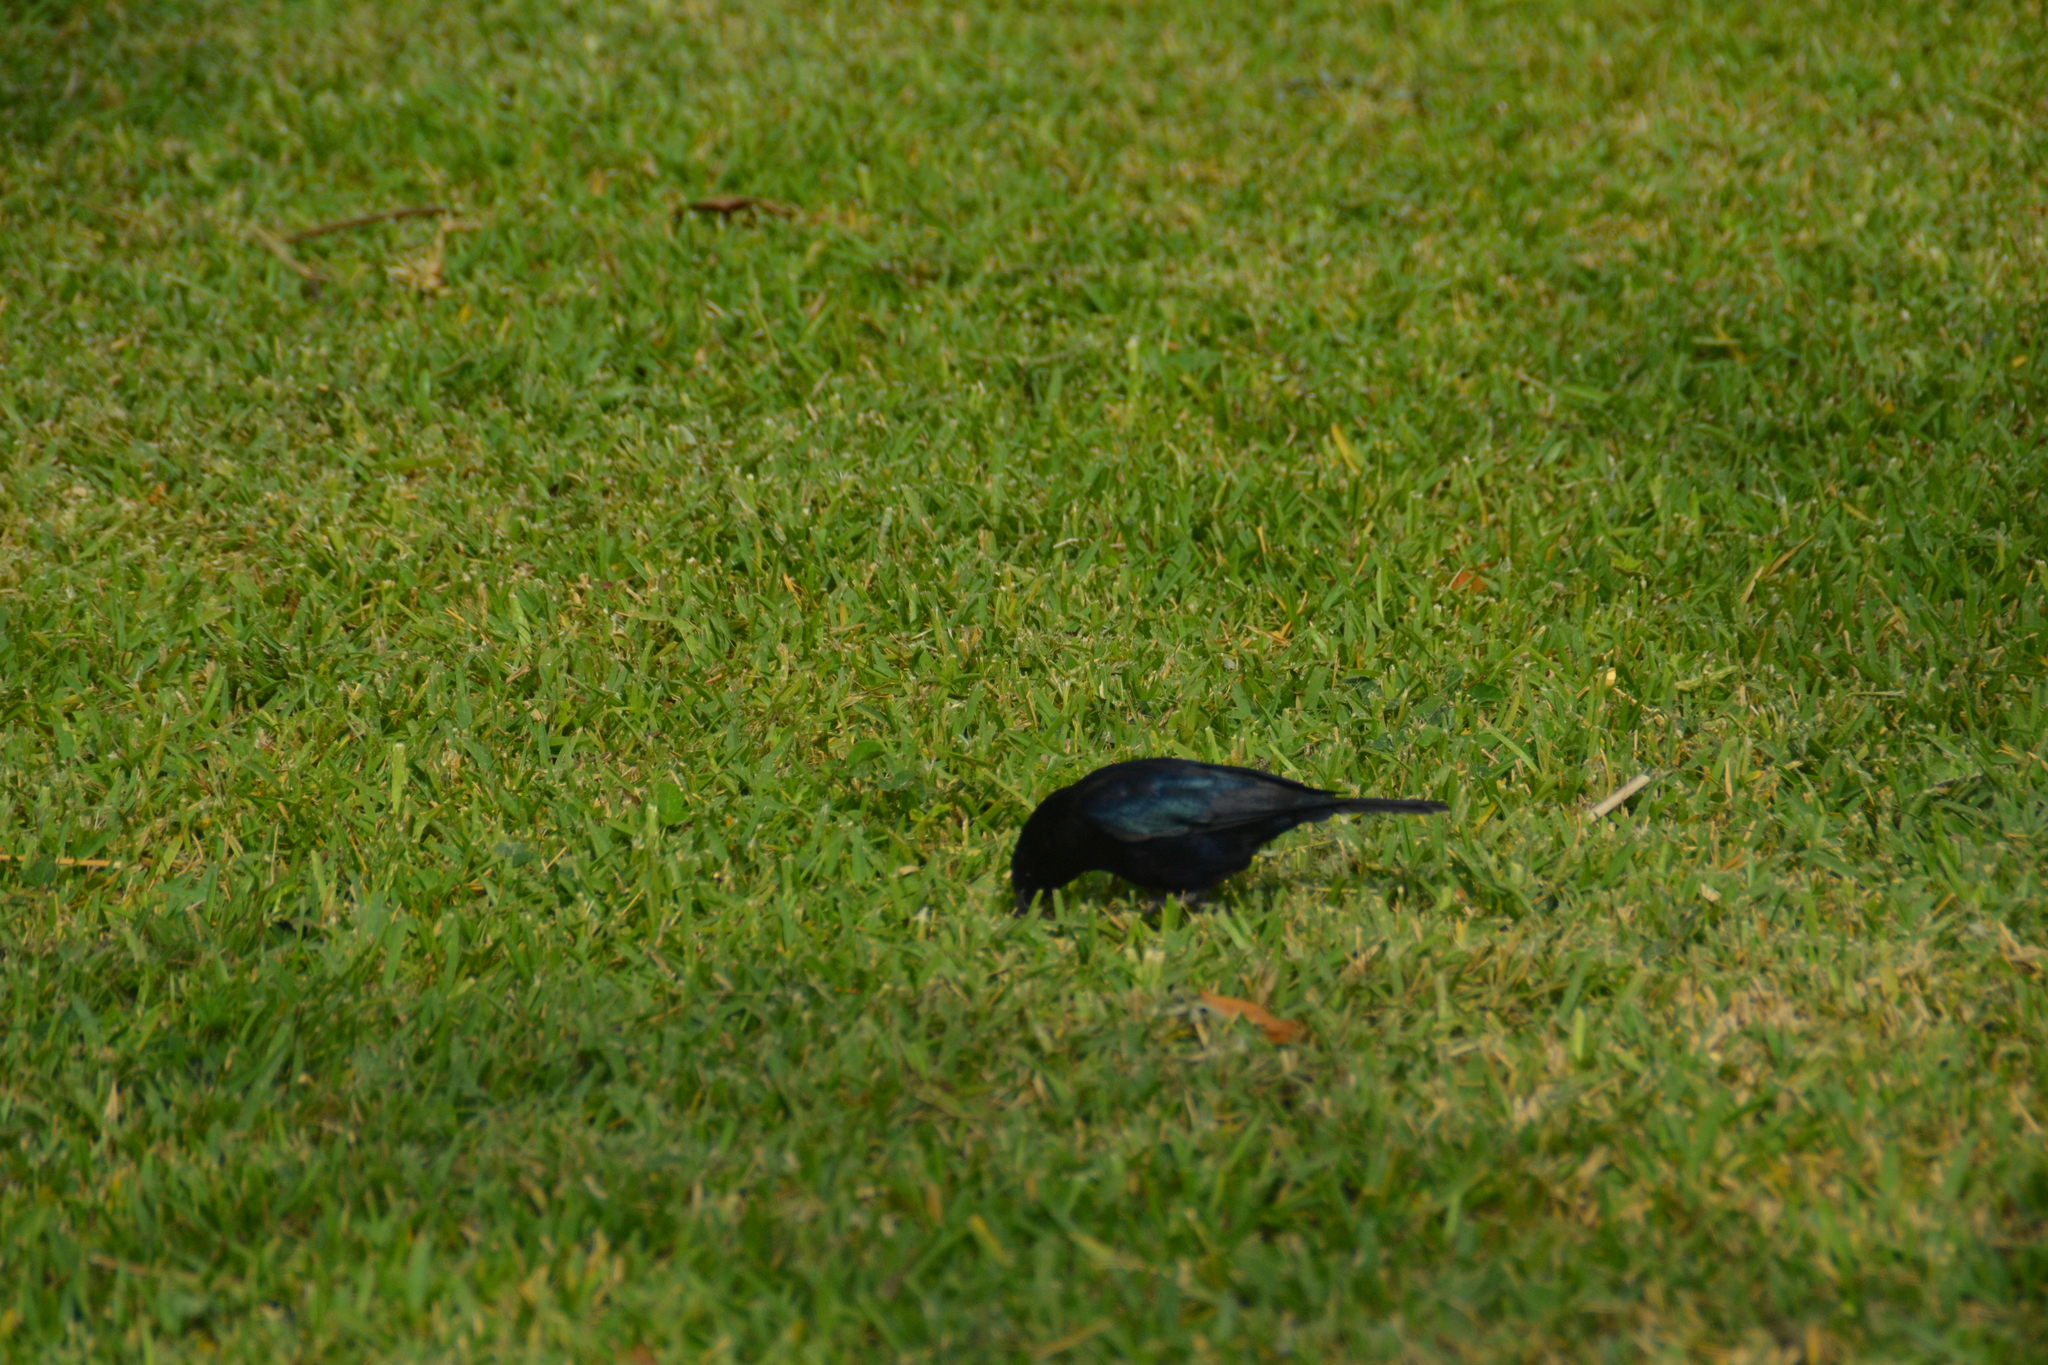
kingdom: Animalia
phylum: Chordata
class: Aves
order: Passeriformes
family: Icteridae
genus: Molothrus
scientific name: Molothrus bonariensis
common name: Shiny cowbird
